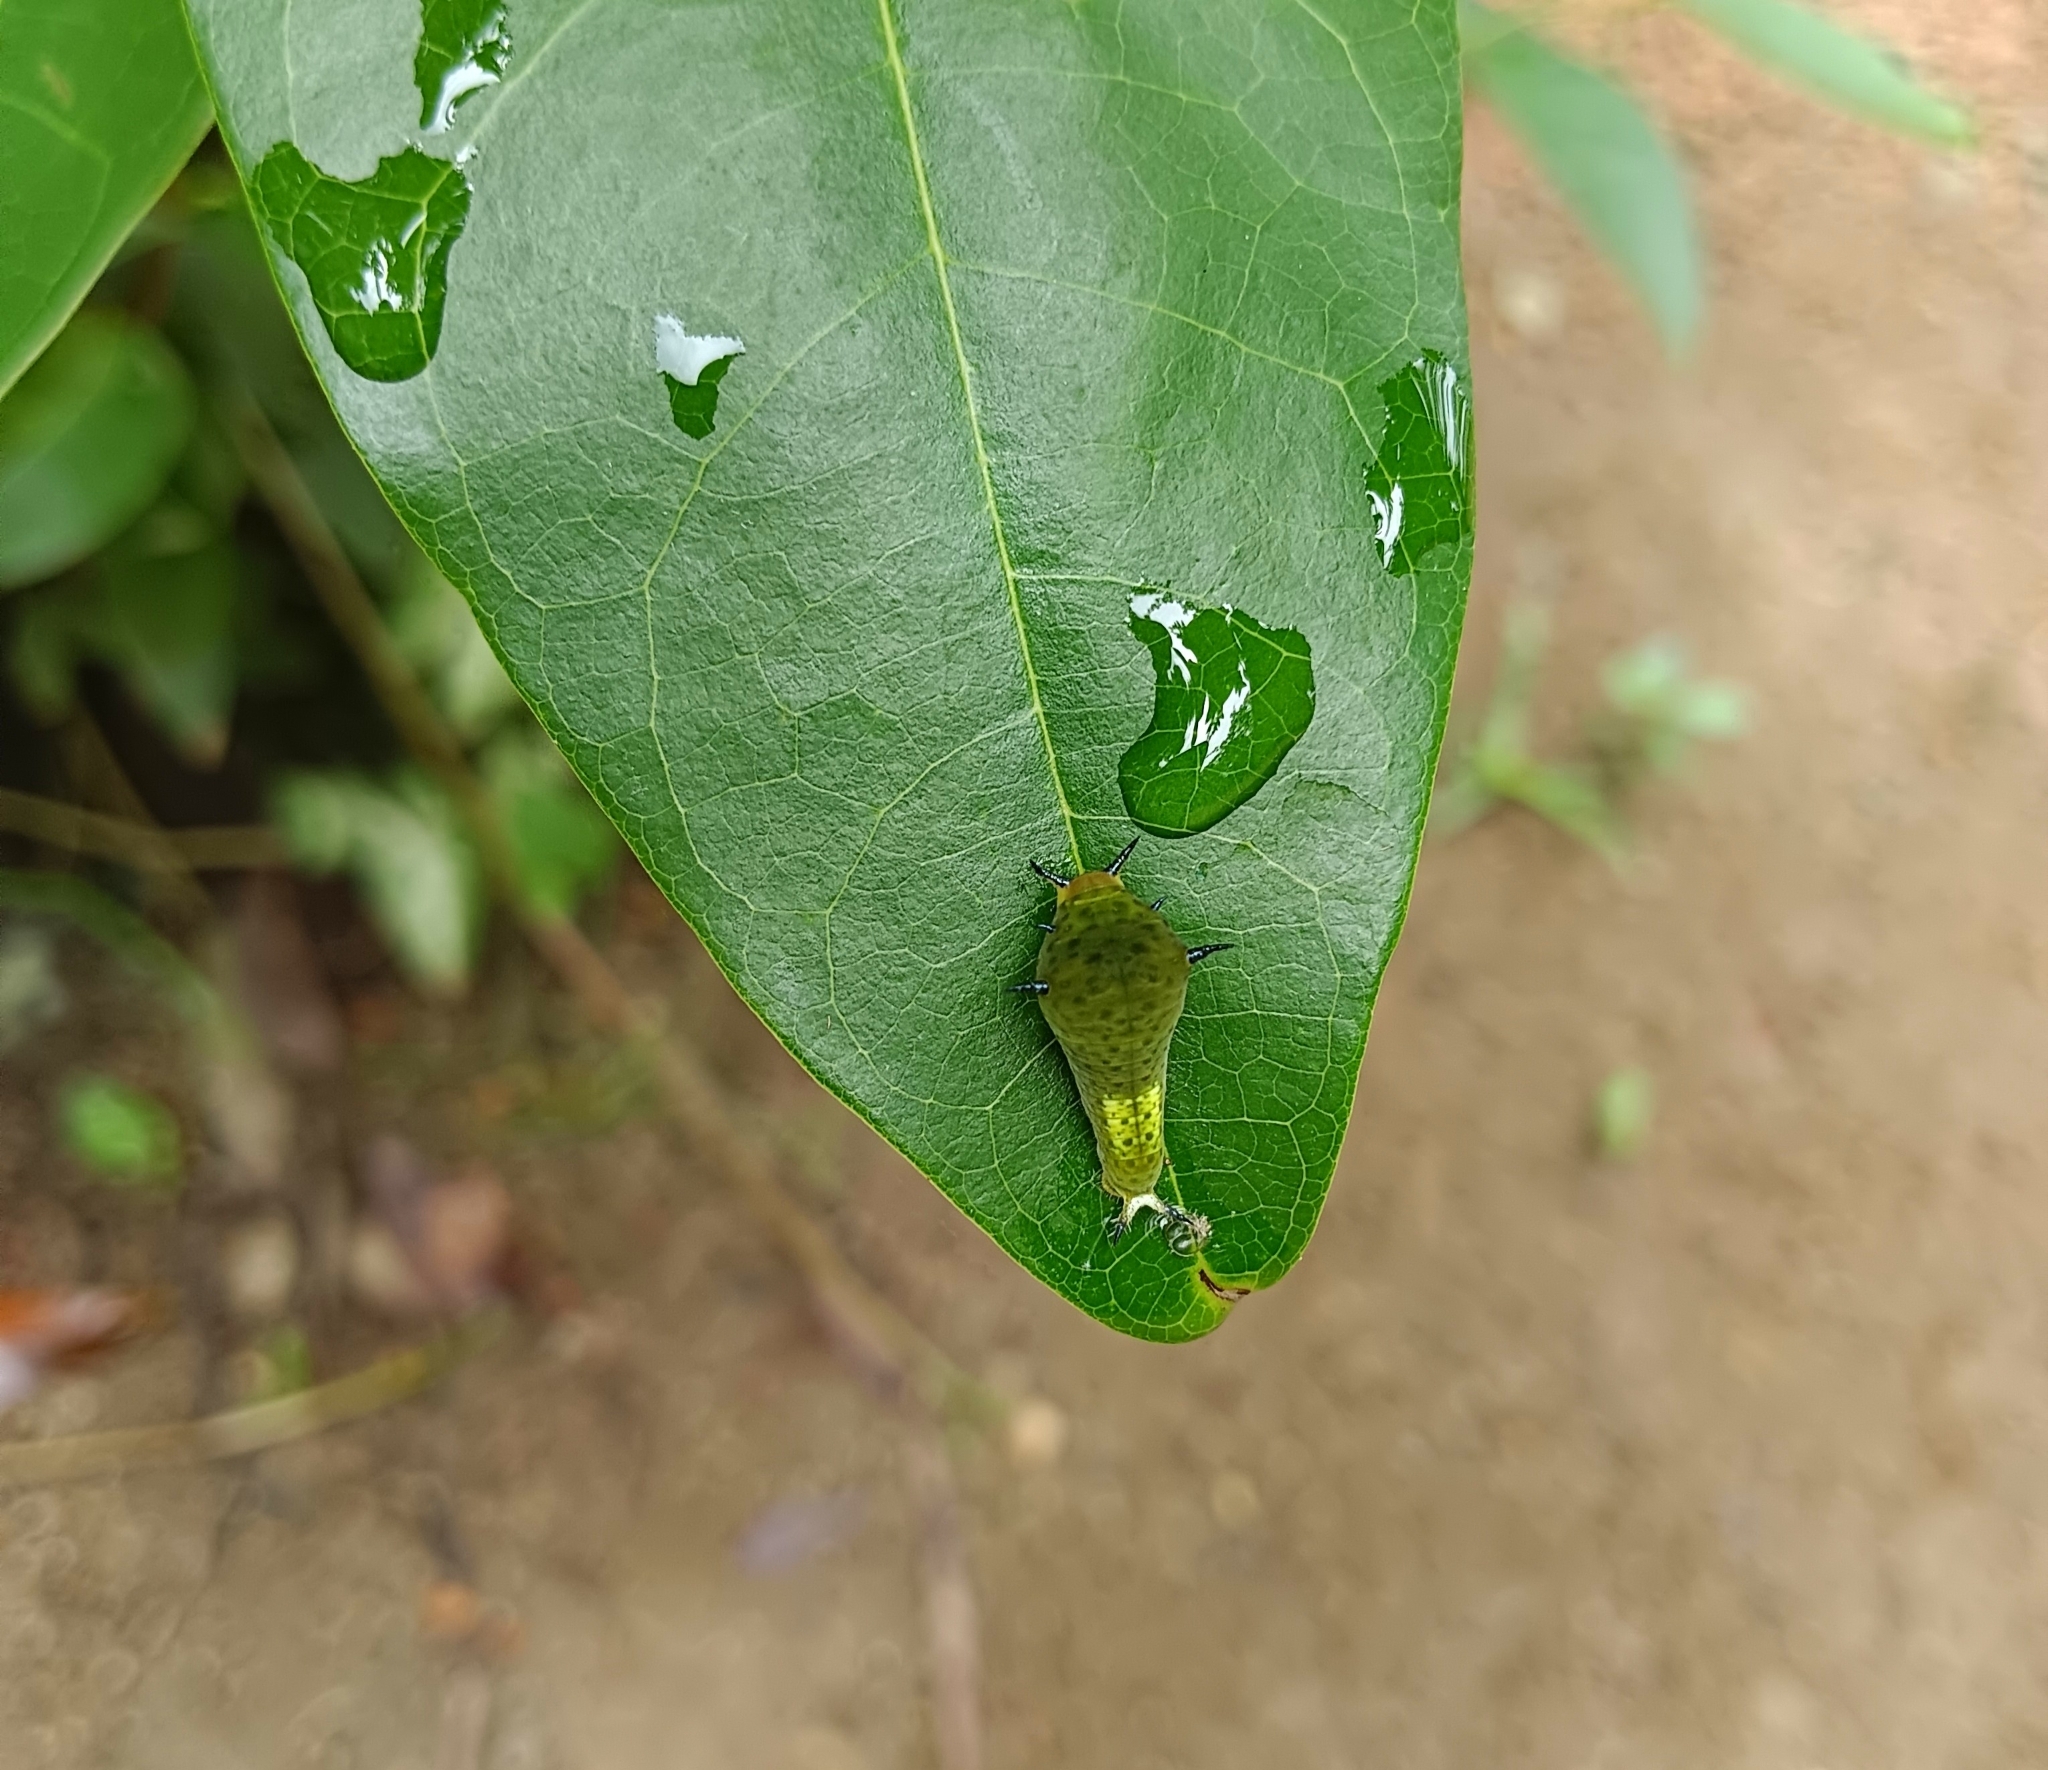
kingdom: Animalia
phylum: Arthropoda
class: Insecta
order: Lepidoptera
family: Papilionidae
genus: Graphium
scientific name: Graphium agamemnon
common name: Tailed jay
